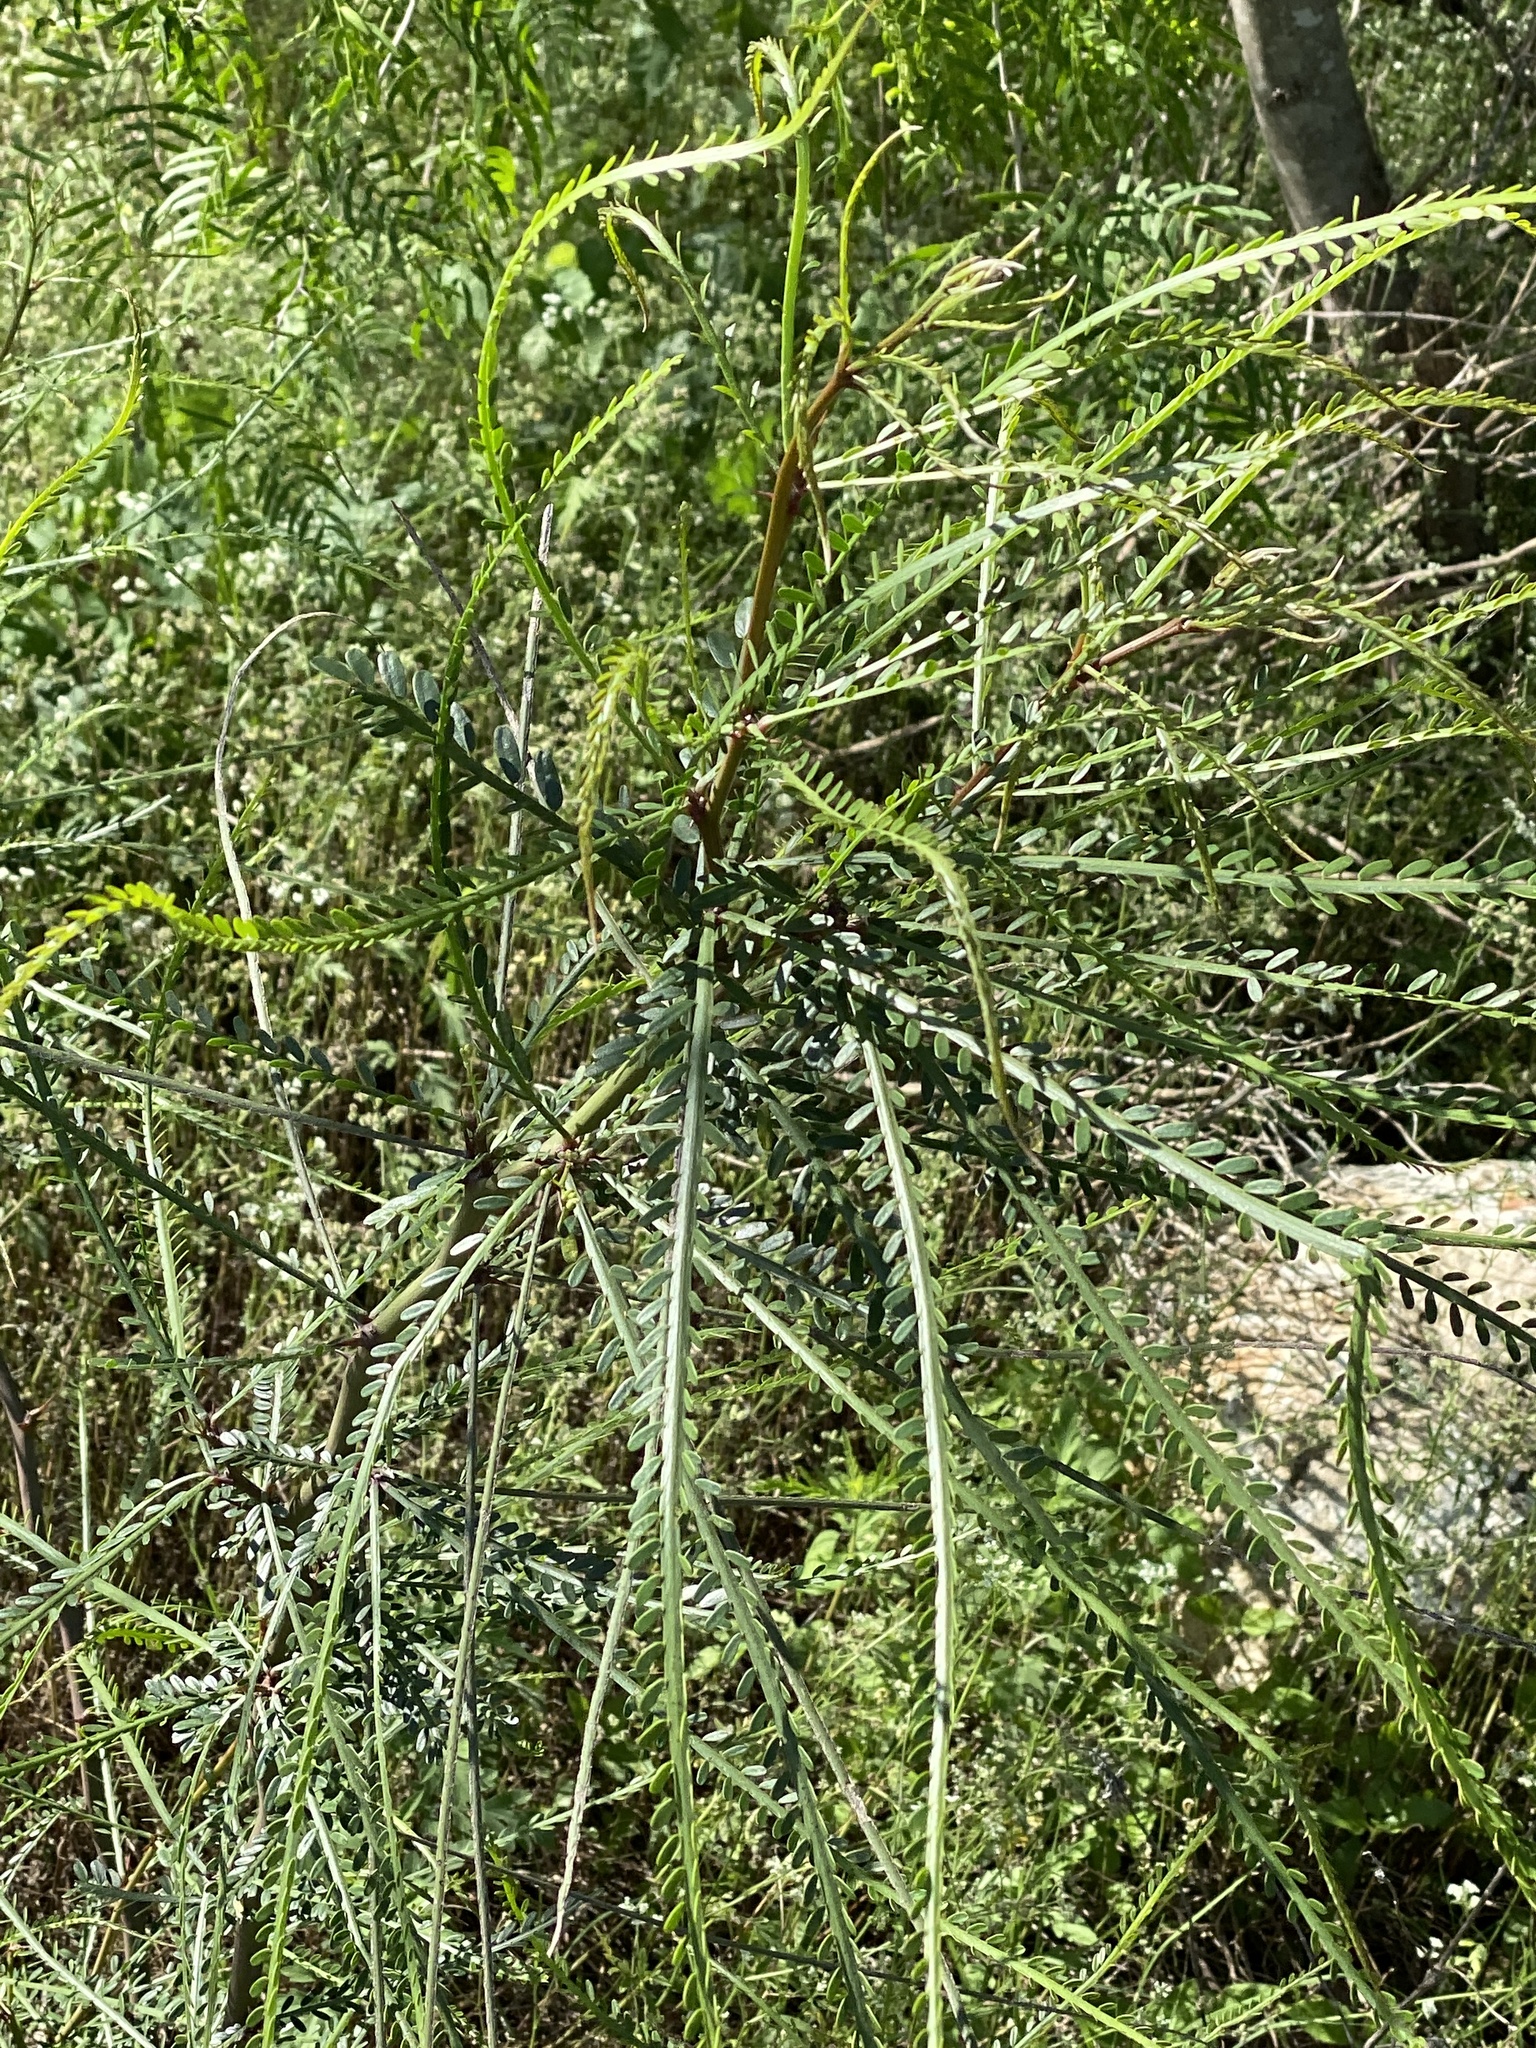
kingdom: Plantae
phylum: Tracheophyta
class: Magnoliopsida
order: Fabales
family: Fabaceae
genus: Parkinsonia
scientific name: Parkinsonia aculeata
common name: Jerusalem thorn
